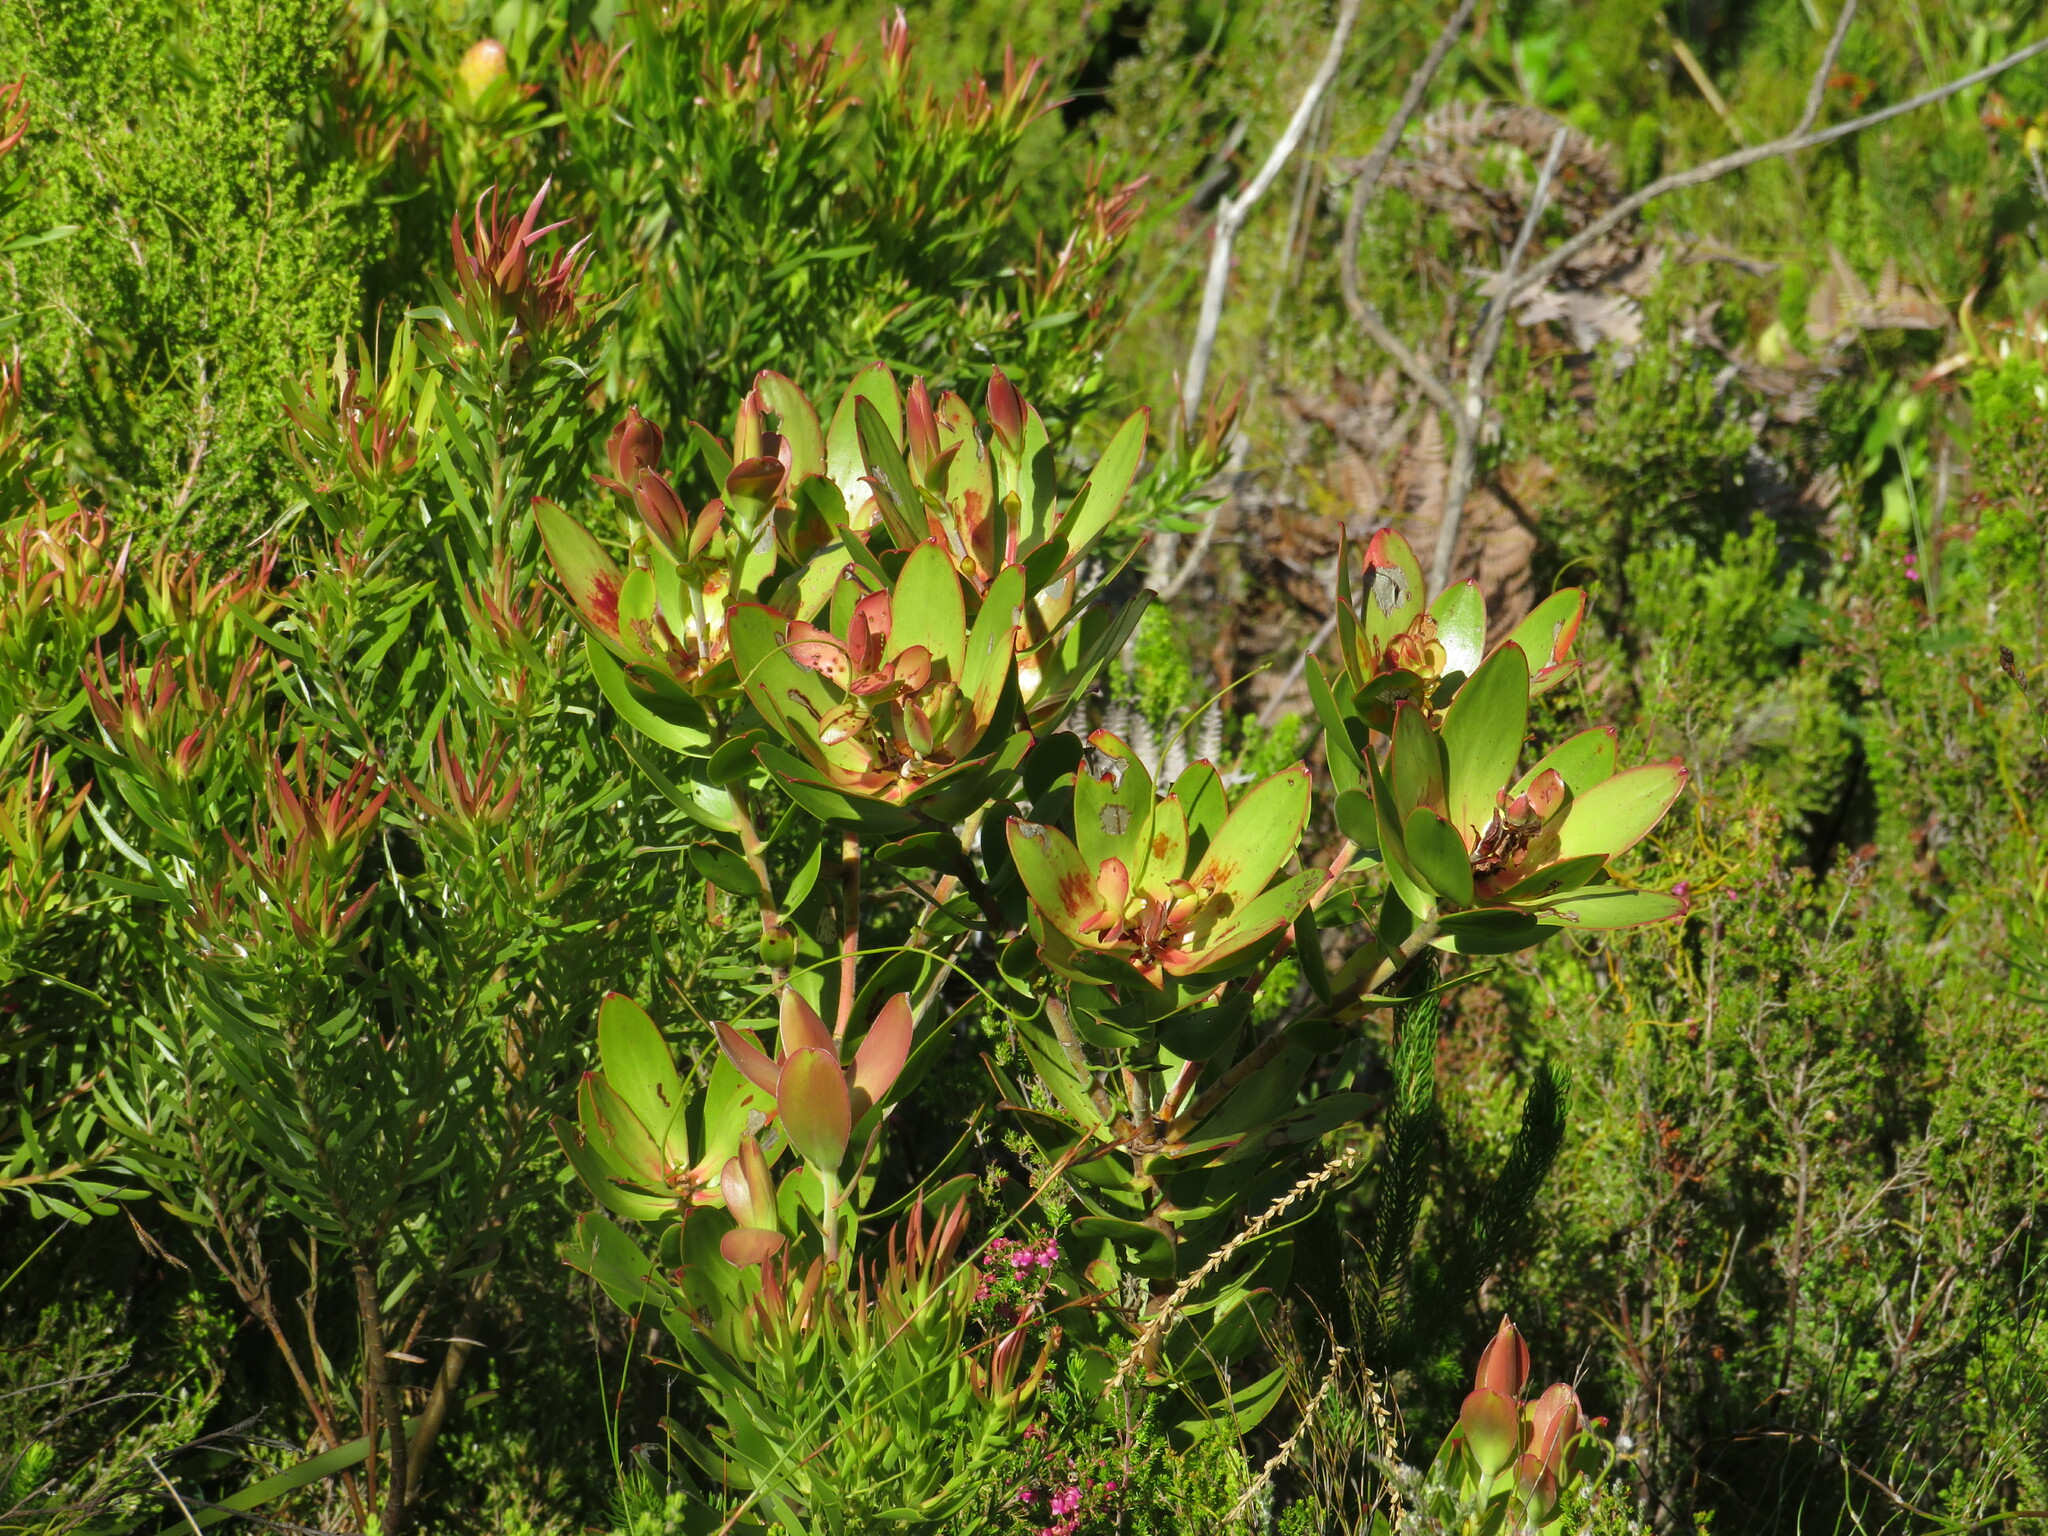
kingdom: Plantae
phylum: Tracheophyta
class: Magnoliopsida
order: Proteales
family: Proteaceae
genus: Leucadendron
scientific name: Leucadendron gandogeri
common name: Broad-leaf conebush
